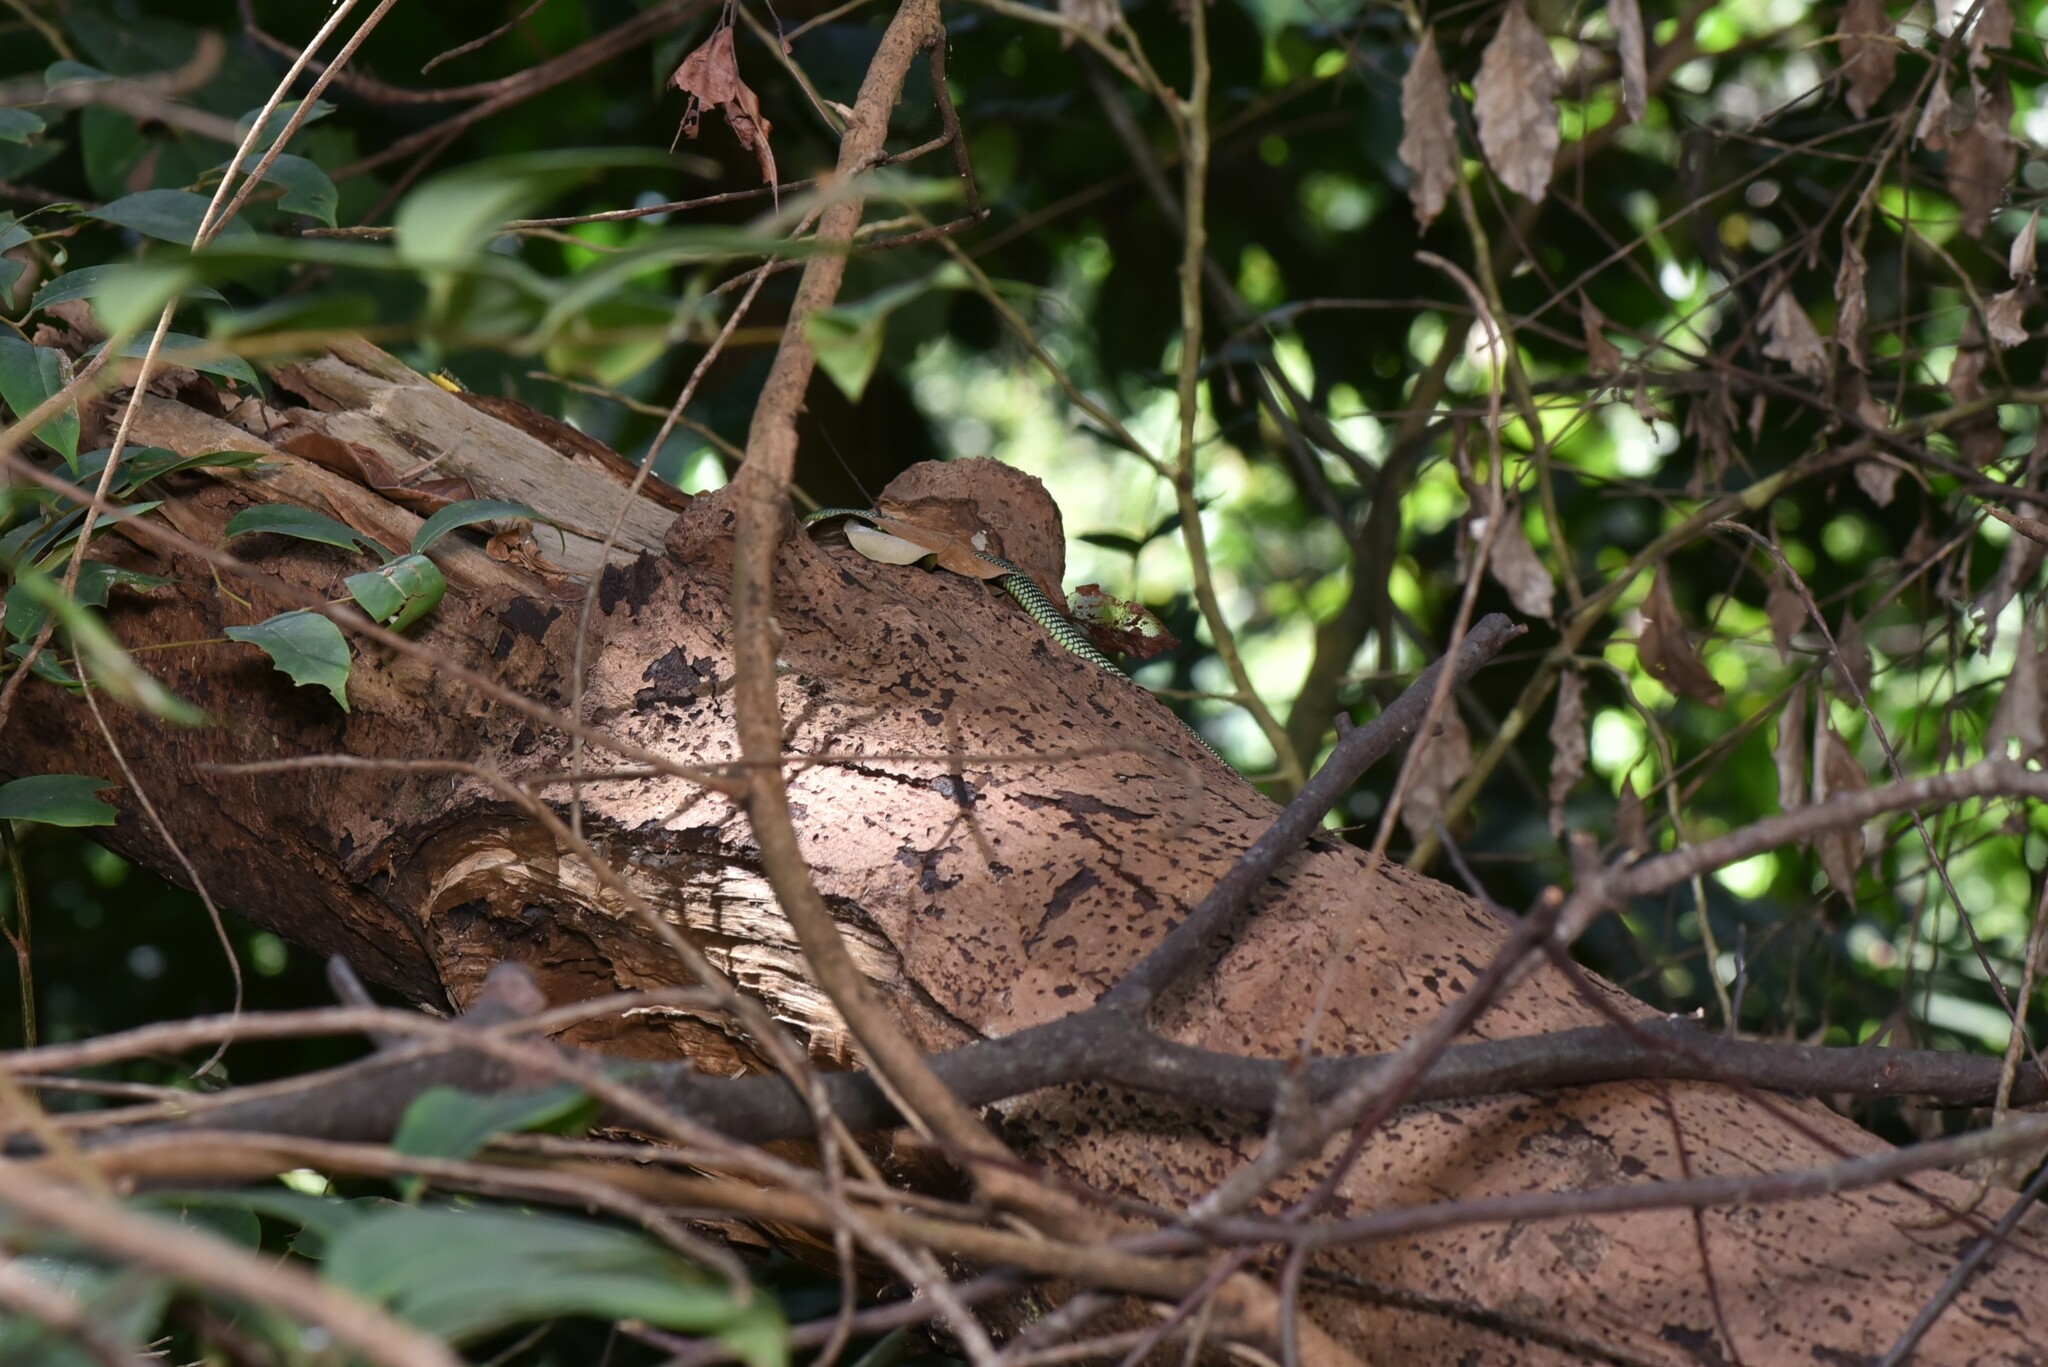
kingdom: Animalia
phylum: Chordata
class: Squamata
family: Colubridae
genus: Chrysopelea
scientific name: Chrysopelea paradisi
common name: Paradise tree snake
